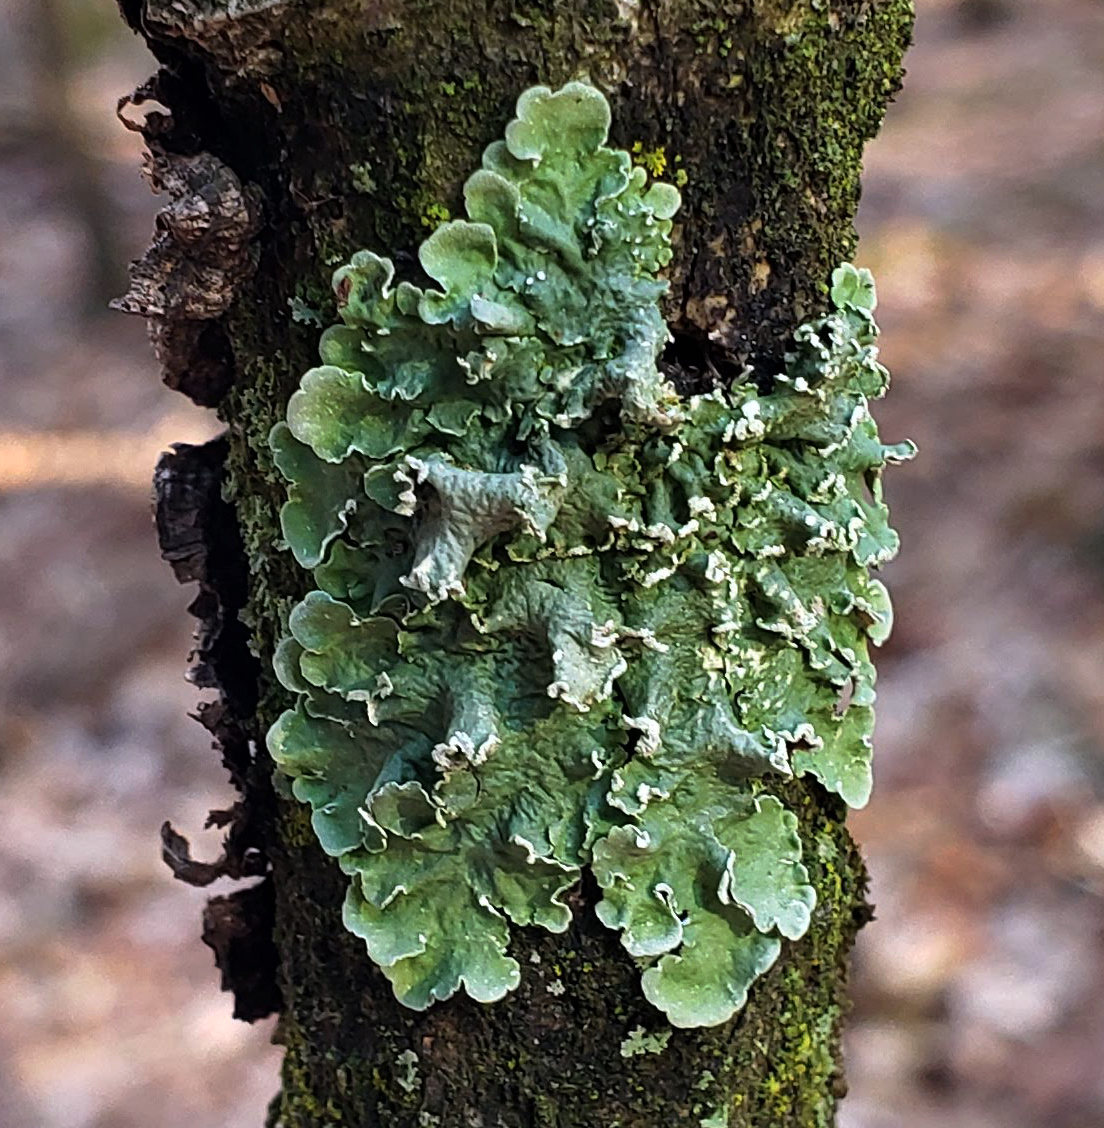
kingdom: Fungi
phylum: Ascomycota
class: Lecanoromycetes
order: Lecanorales
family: Parmeliaceae
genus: Flavopunctelia
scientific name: Flavopunctelia soredica
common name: Powder-edged speckled greenshield
